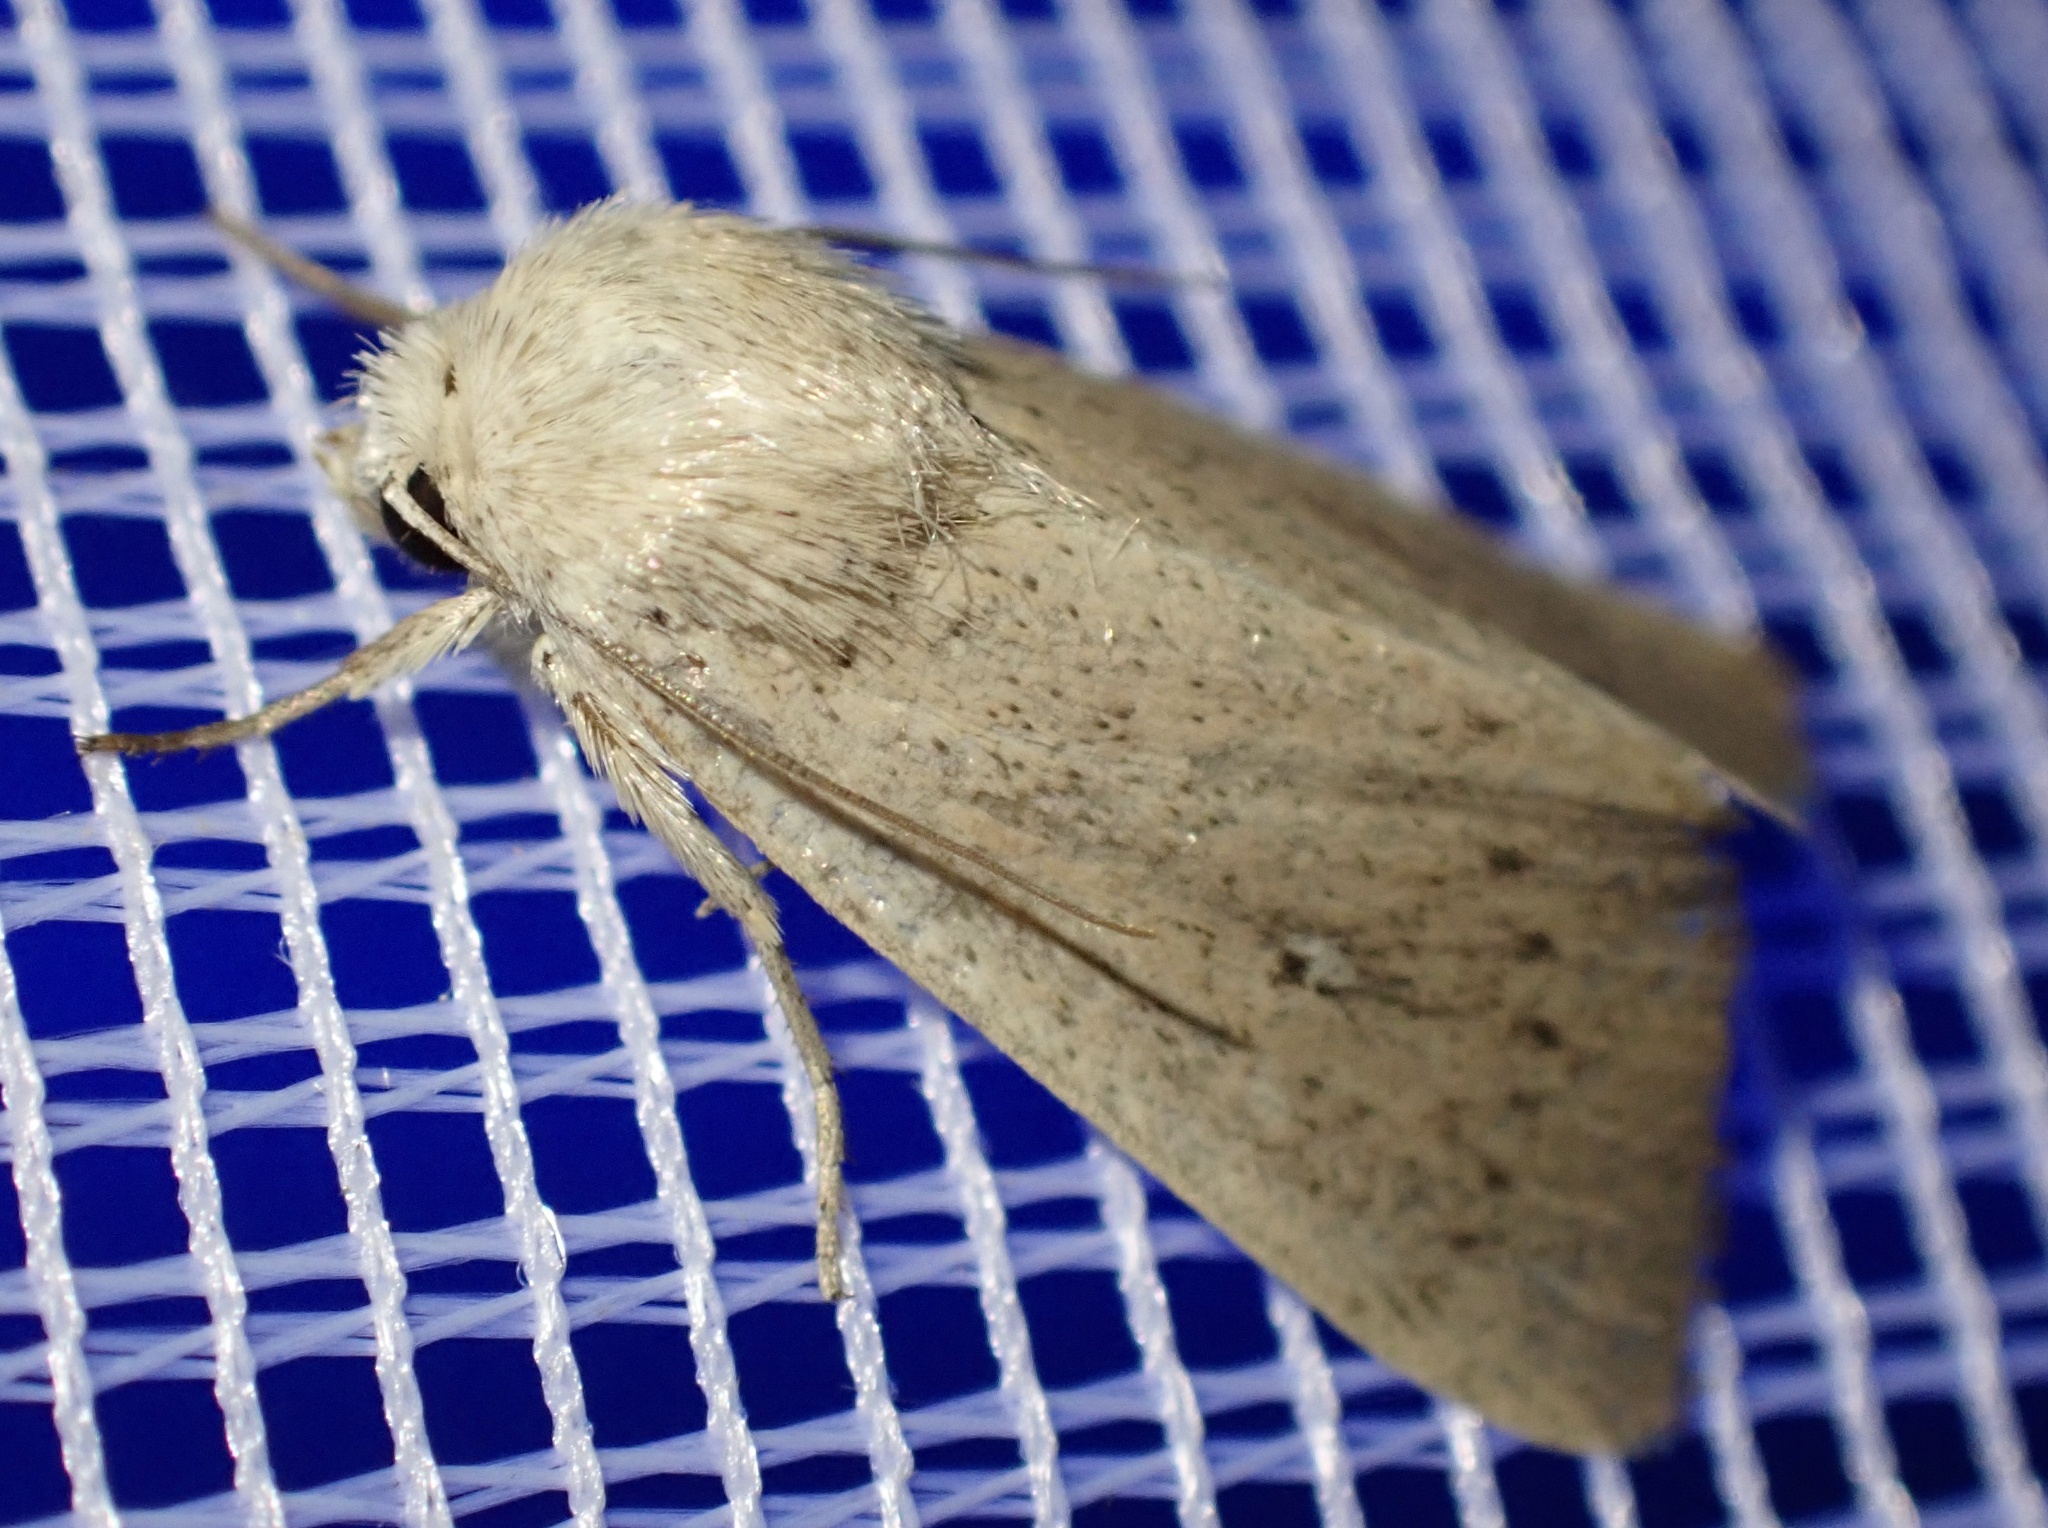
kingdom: Animalia
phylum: Arthropoda
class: Insecta
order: Lepidoptera
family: Noctuidae
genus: Mythimna
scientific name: Mythimna sicula
